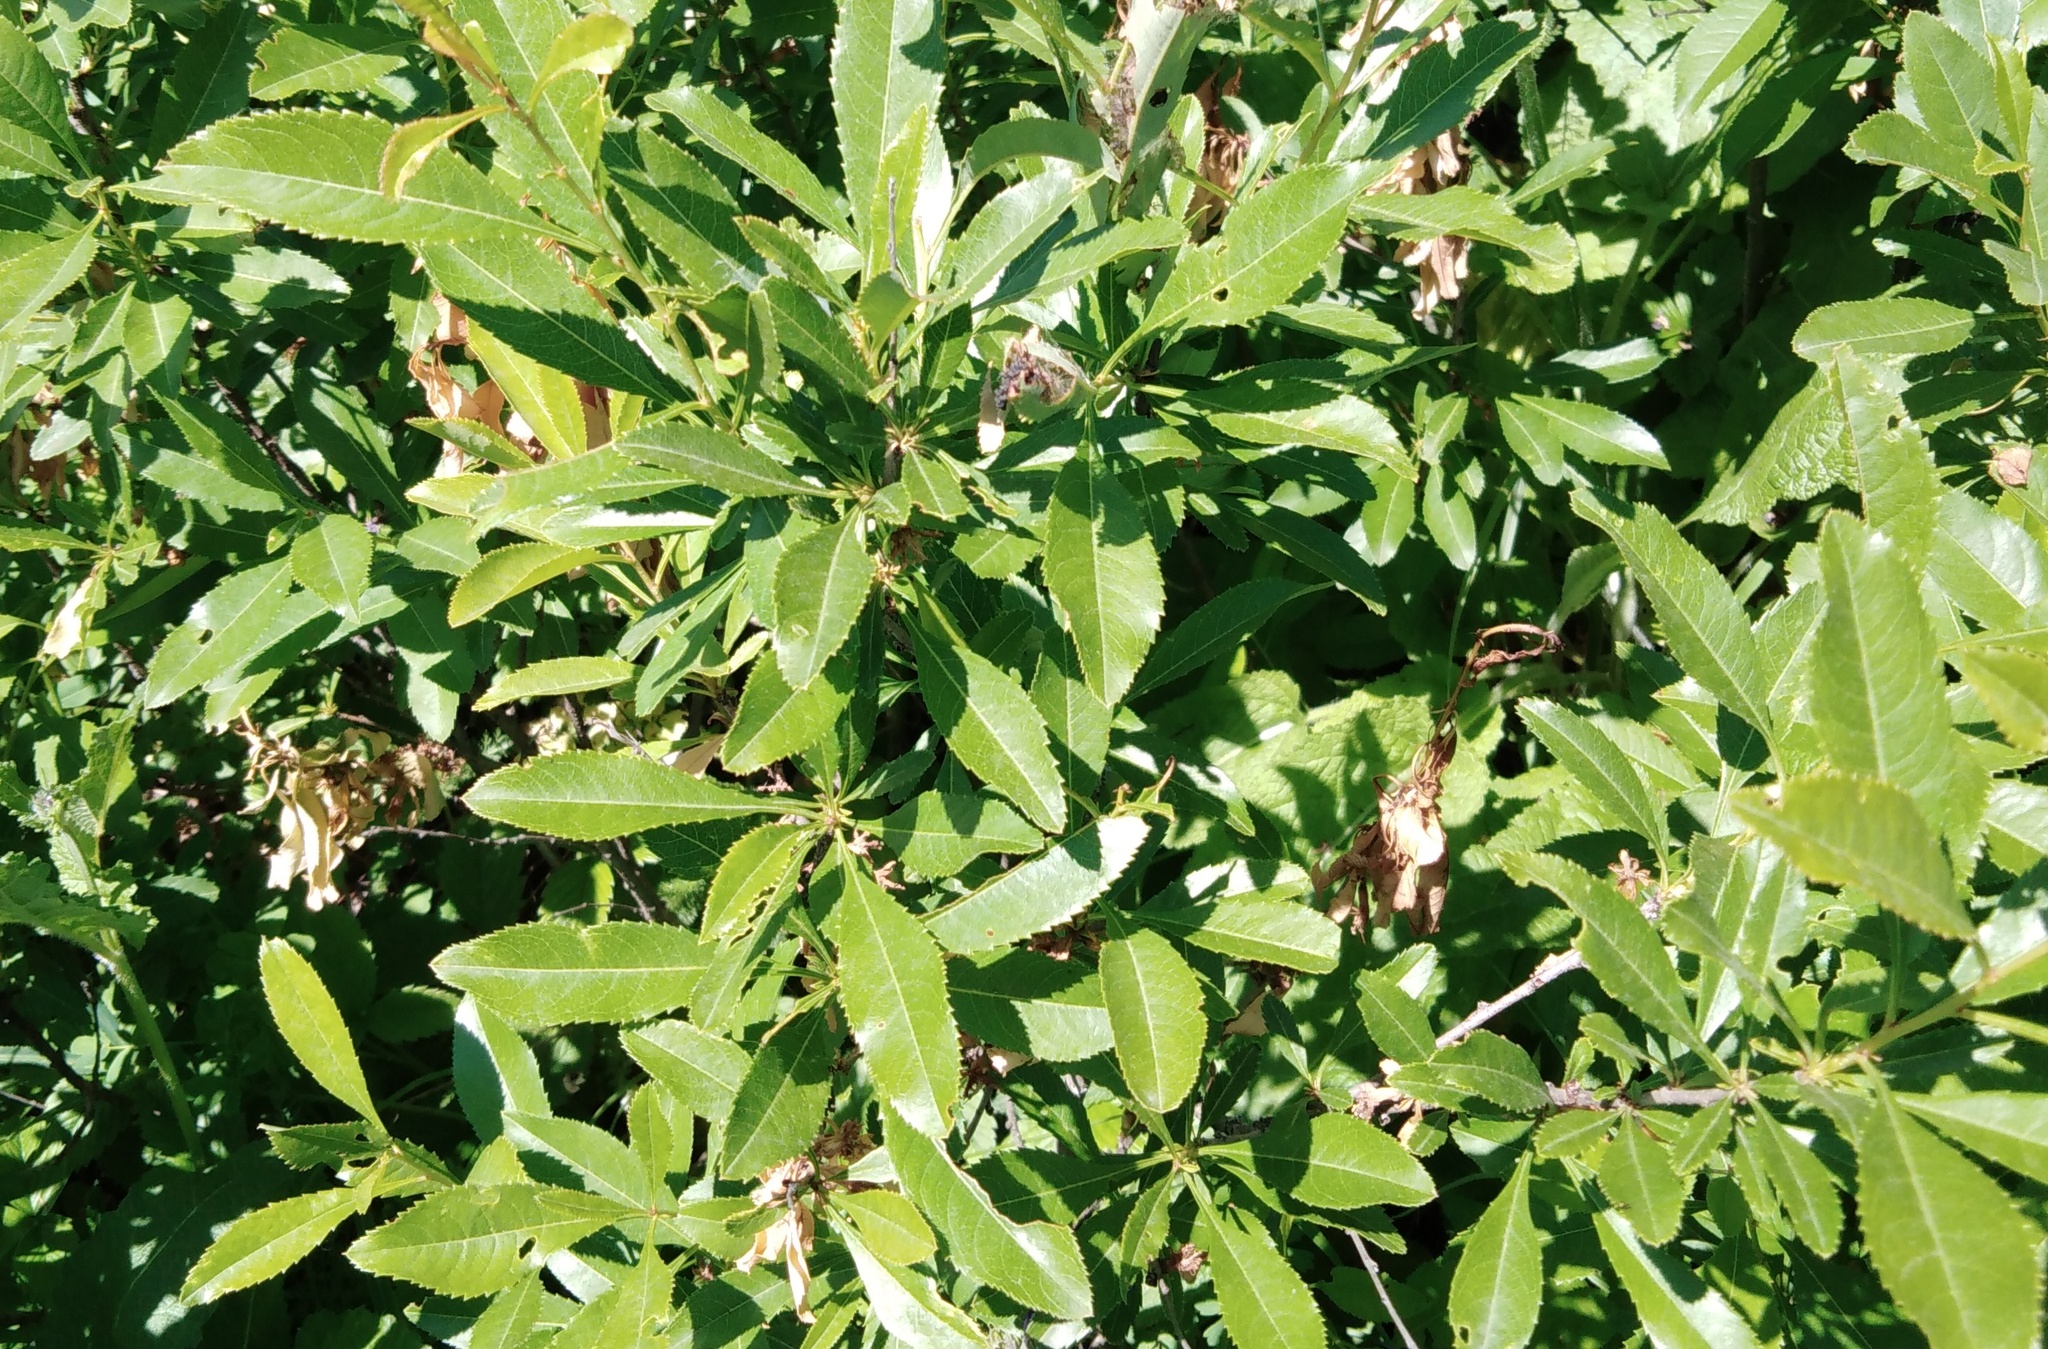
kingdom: Plantae
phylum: Tracheophyta
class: Magnoliopsida
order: Rosales
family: Rosaceae
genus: Prunus
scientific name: Prunus tenella
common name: Dwarf russian almond
